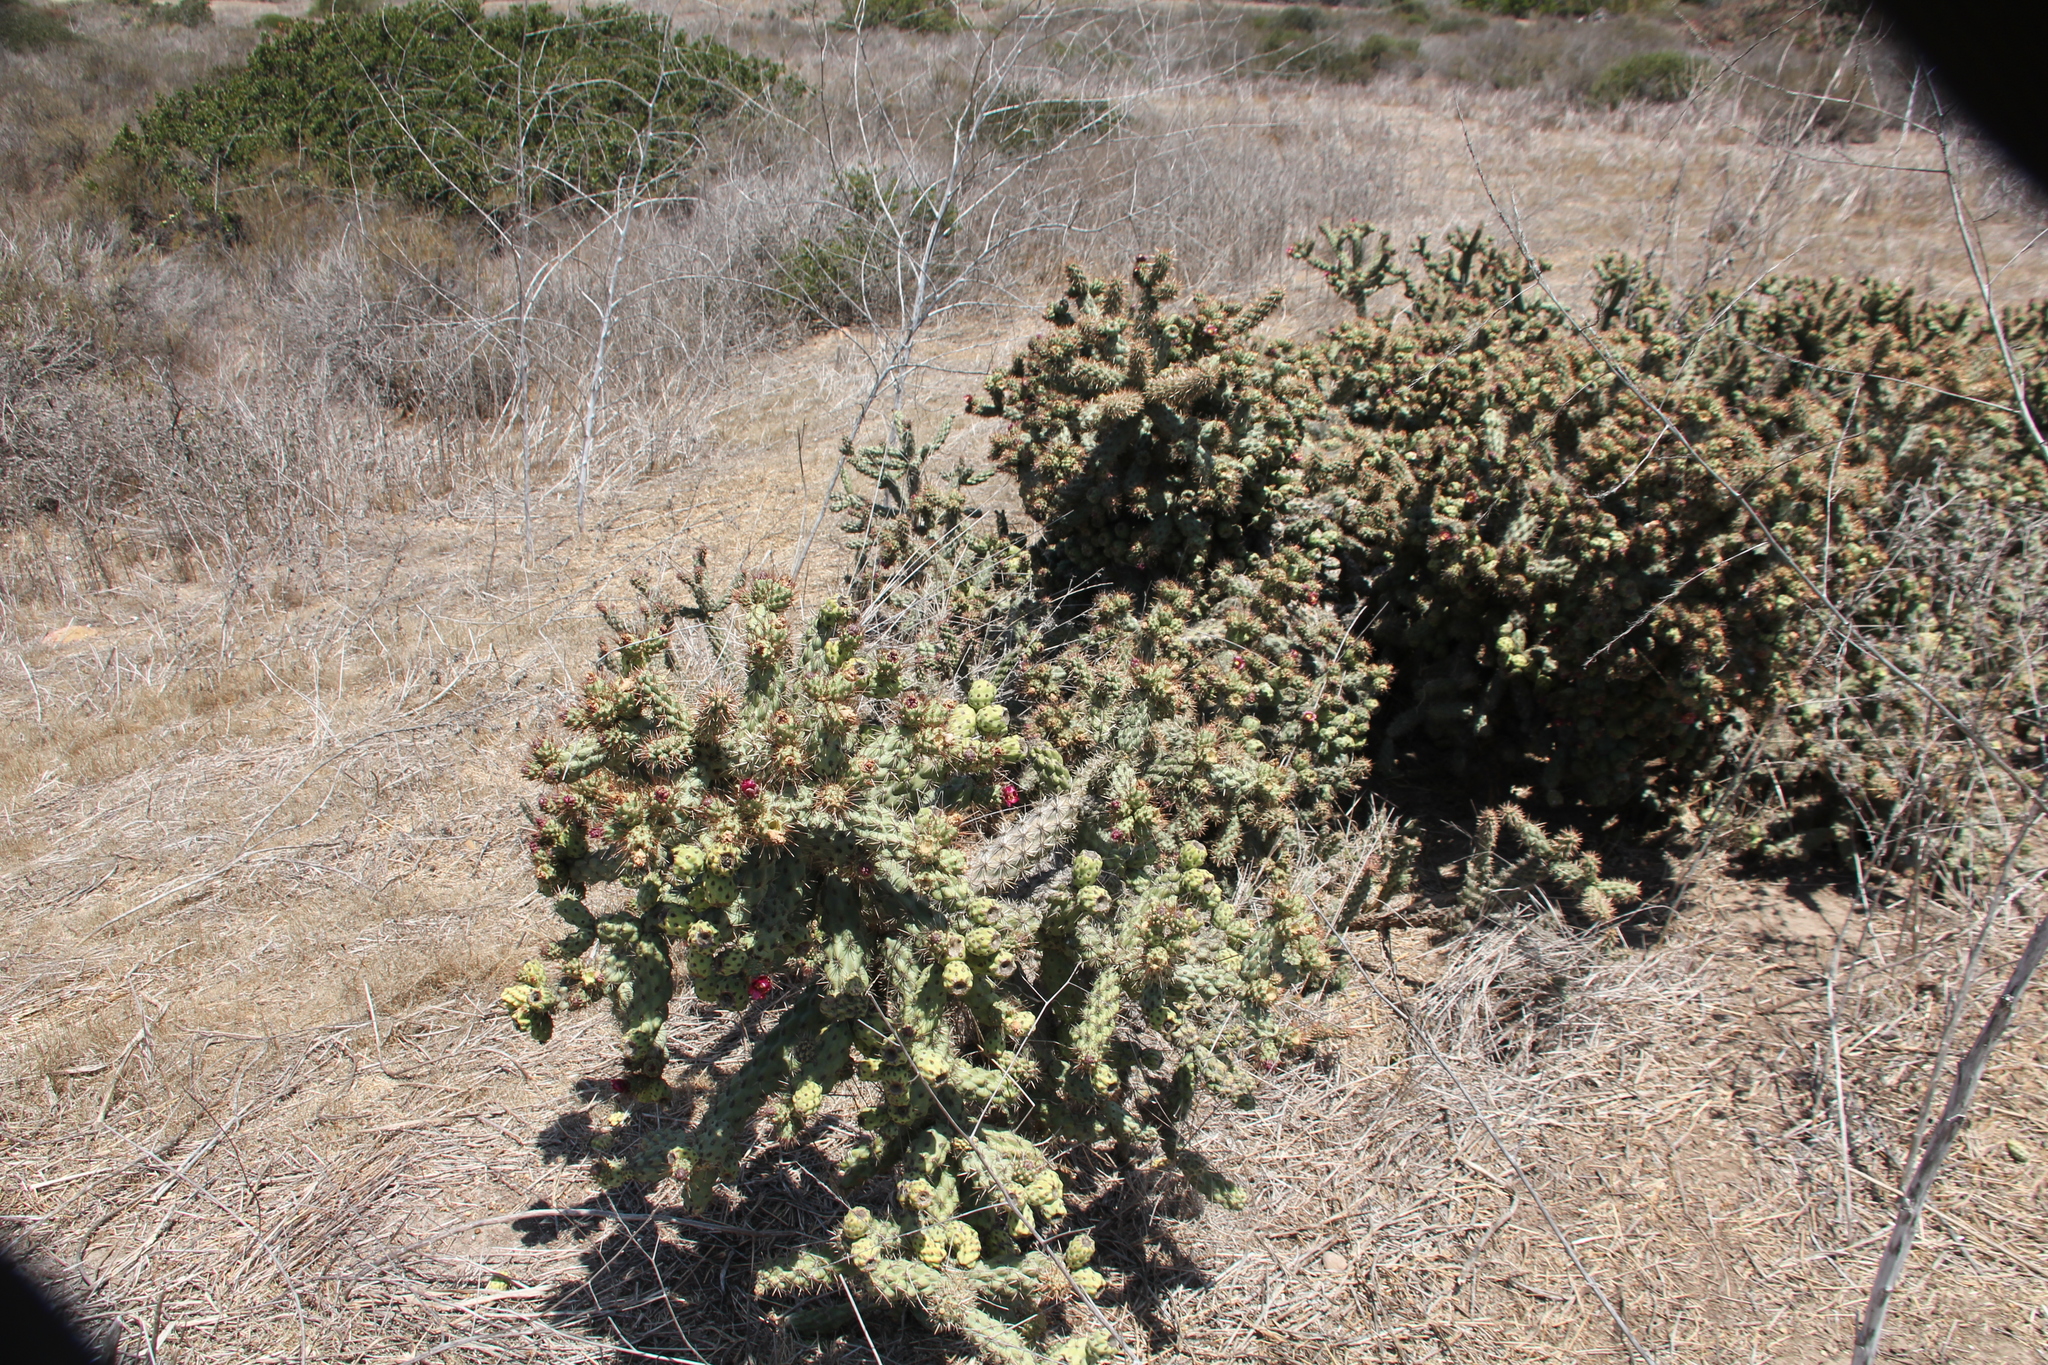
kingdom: Plantae
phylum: Tracheophyta
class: Magnoliopsida
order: Caryophyllales
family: Cactaceae
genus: Cylindropuntia
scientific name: Cylindropuntia prolifera
